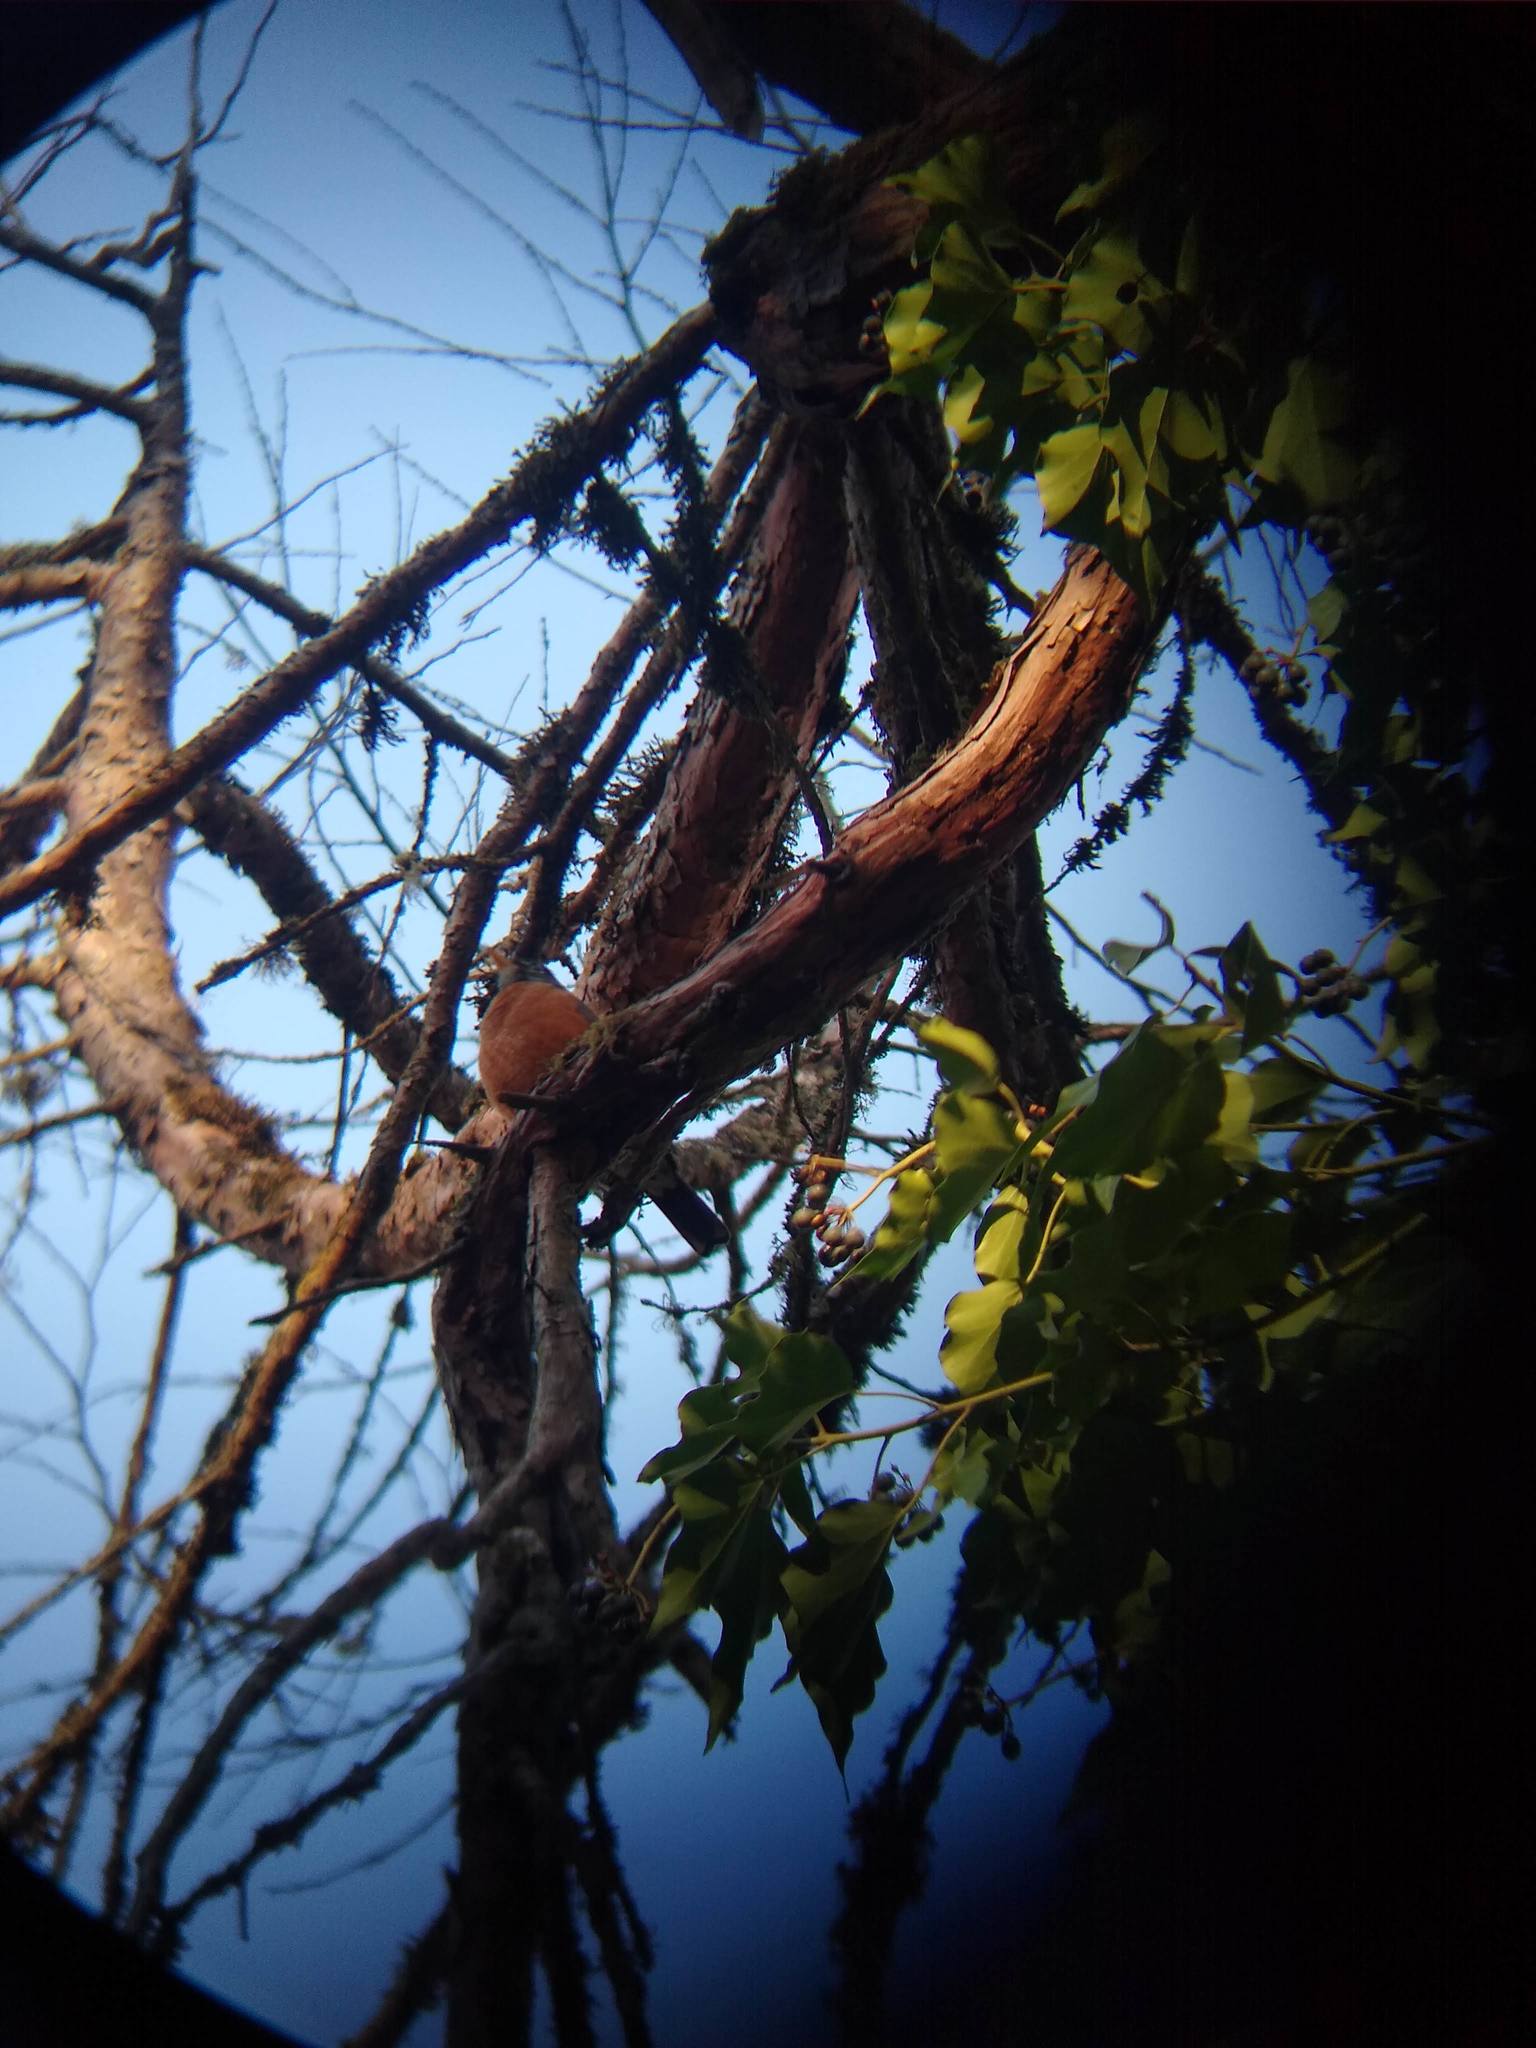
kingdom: Animalia
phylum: Chordata
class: Aves
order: Passeriformes
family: Turdidae
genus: Turdus
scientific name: Turdus migratorius
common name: American robin
